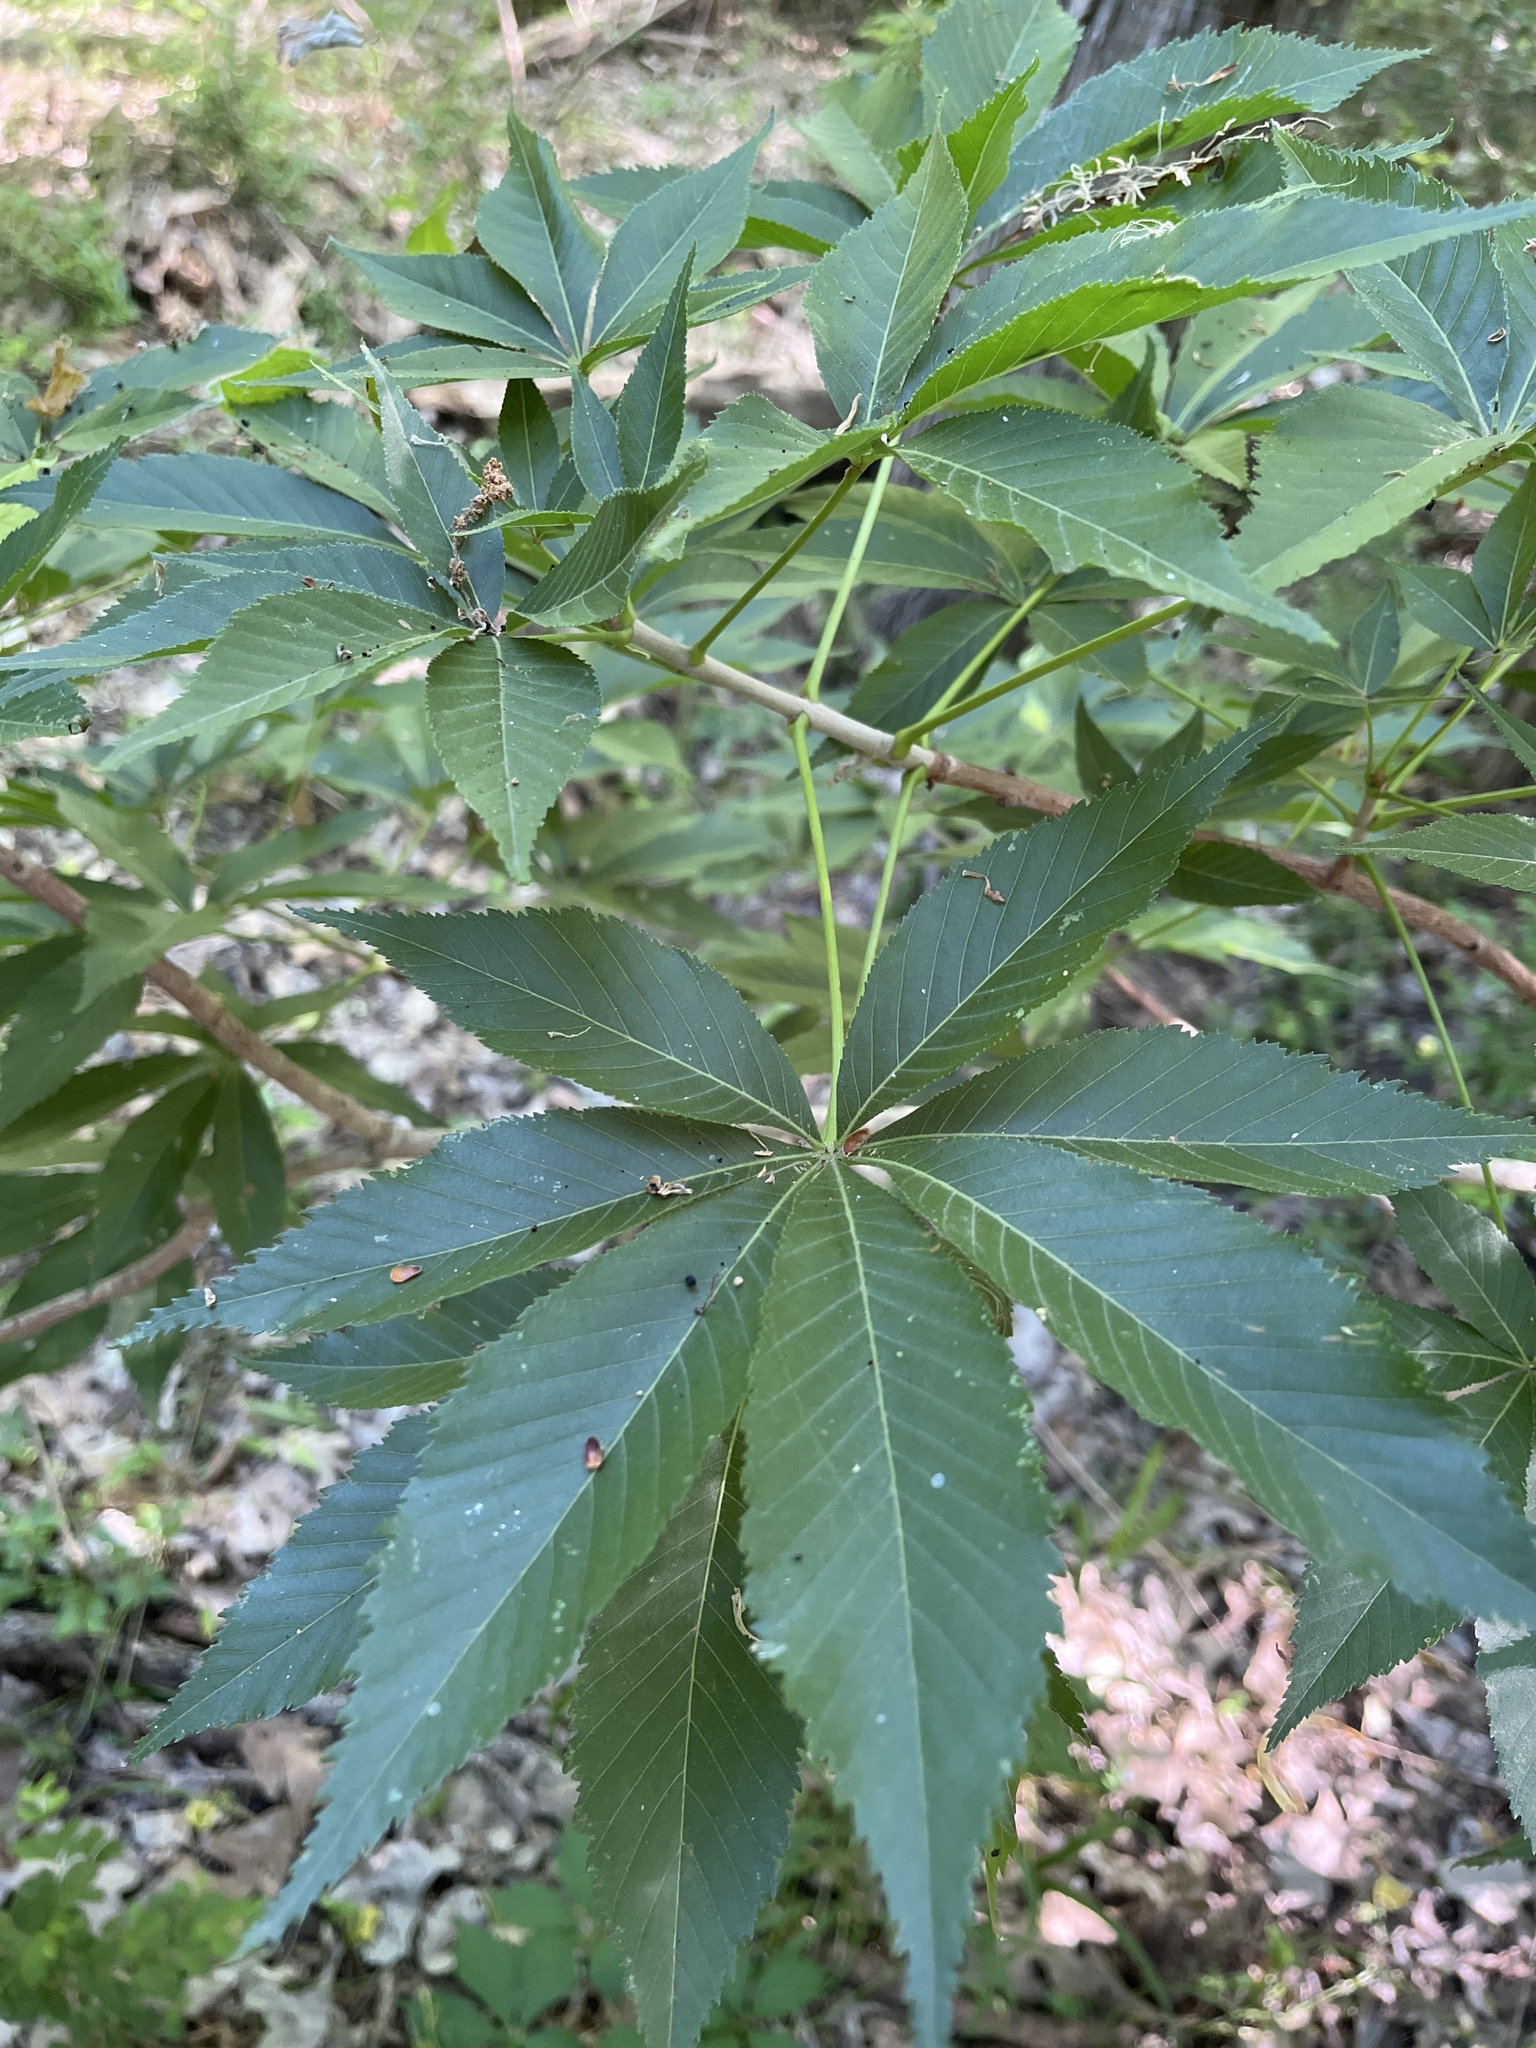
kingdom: Plantae
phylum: Tracheophyta
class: Magnoliopsida
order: Sapindales
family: Sapindaceae
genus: Aesculus
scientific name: Aesculus glabra
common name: Ohio buckeye
